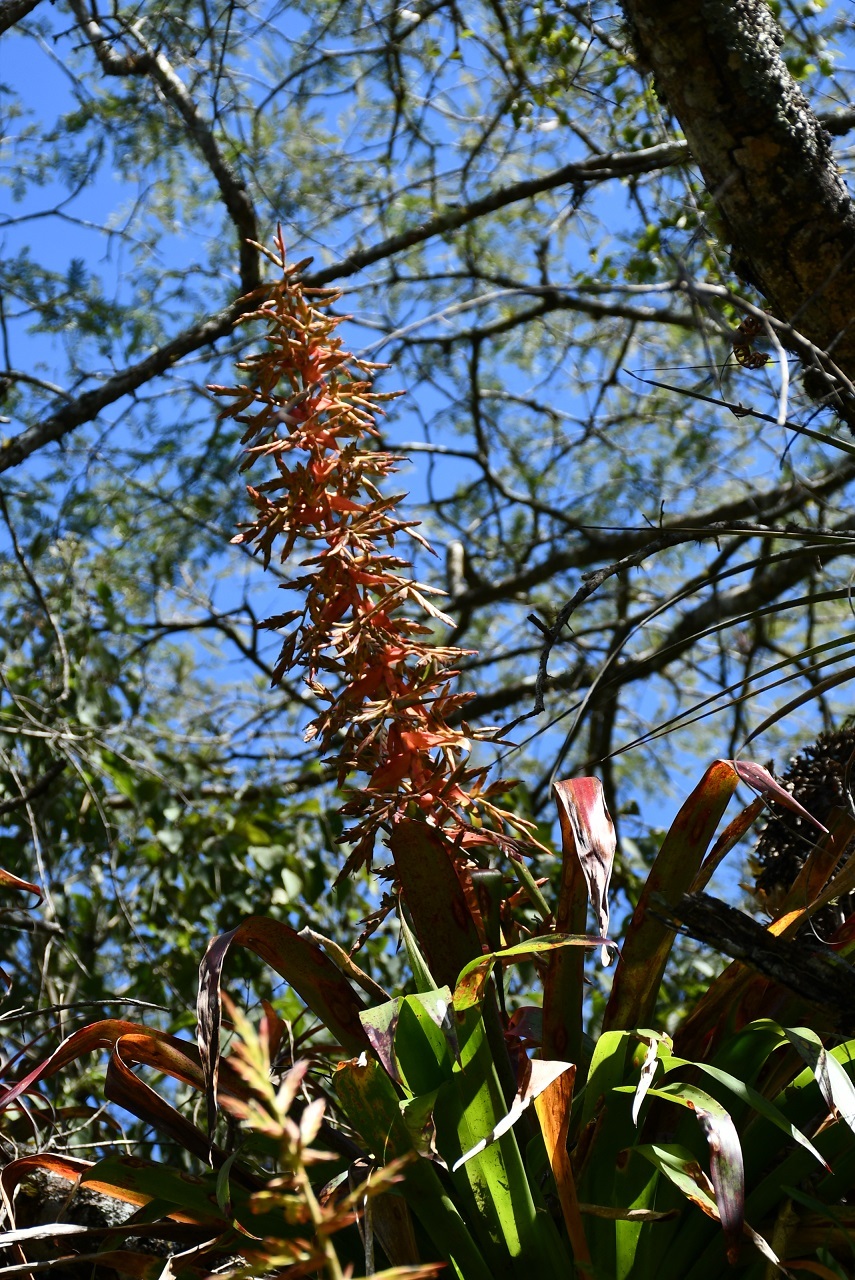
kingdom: Plantae
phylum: Tracheophyta
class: Liliopsida
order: Poales
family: Bromeliaceae
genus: Tillandsia
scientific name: Tillandsia guatemalensis
